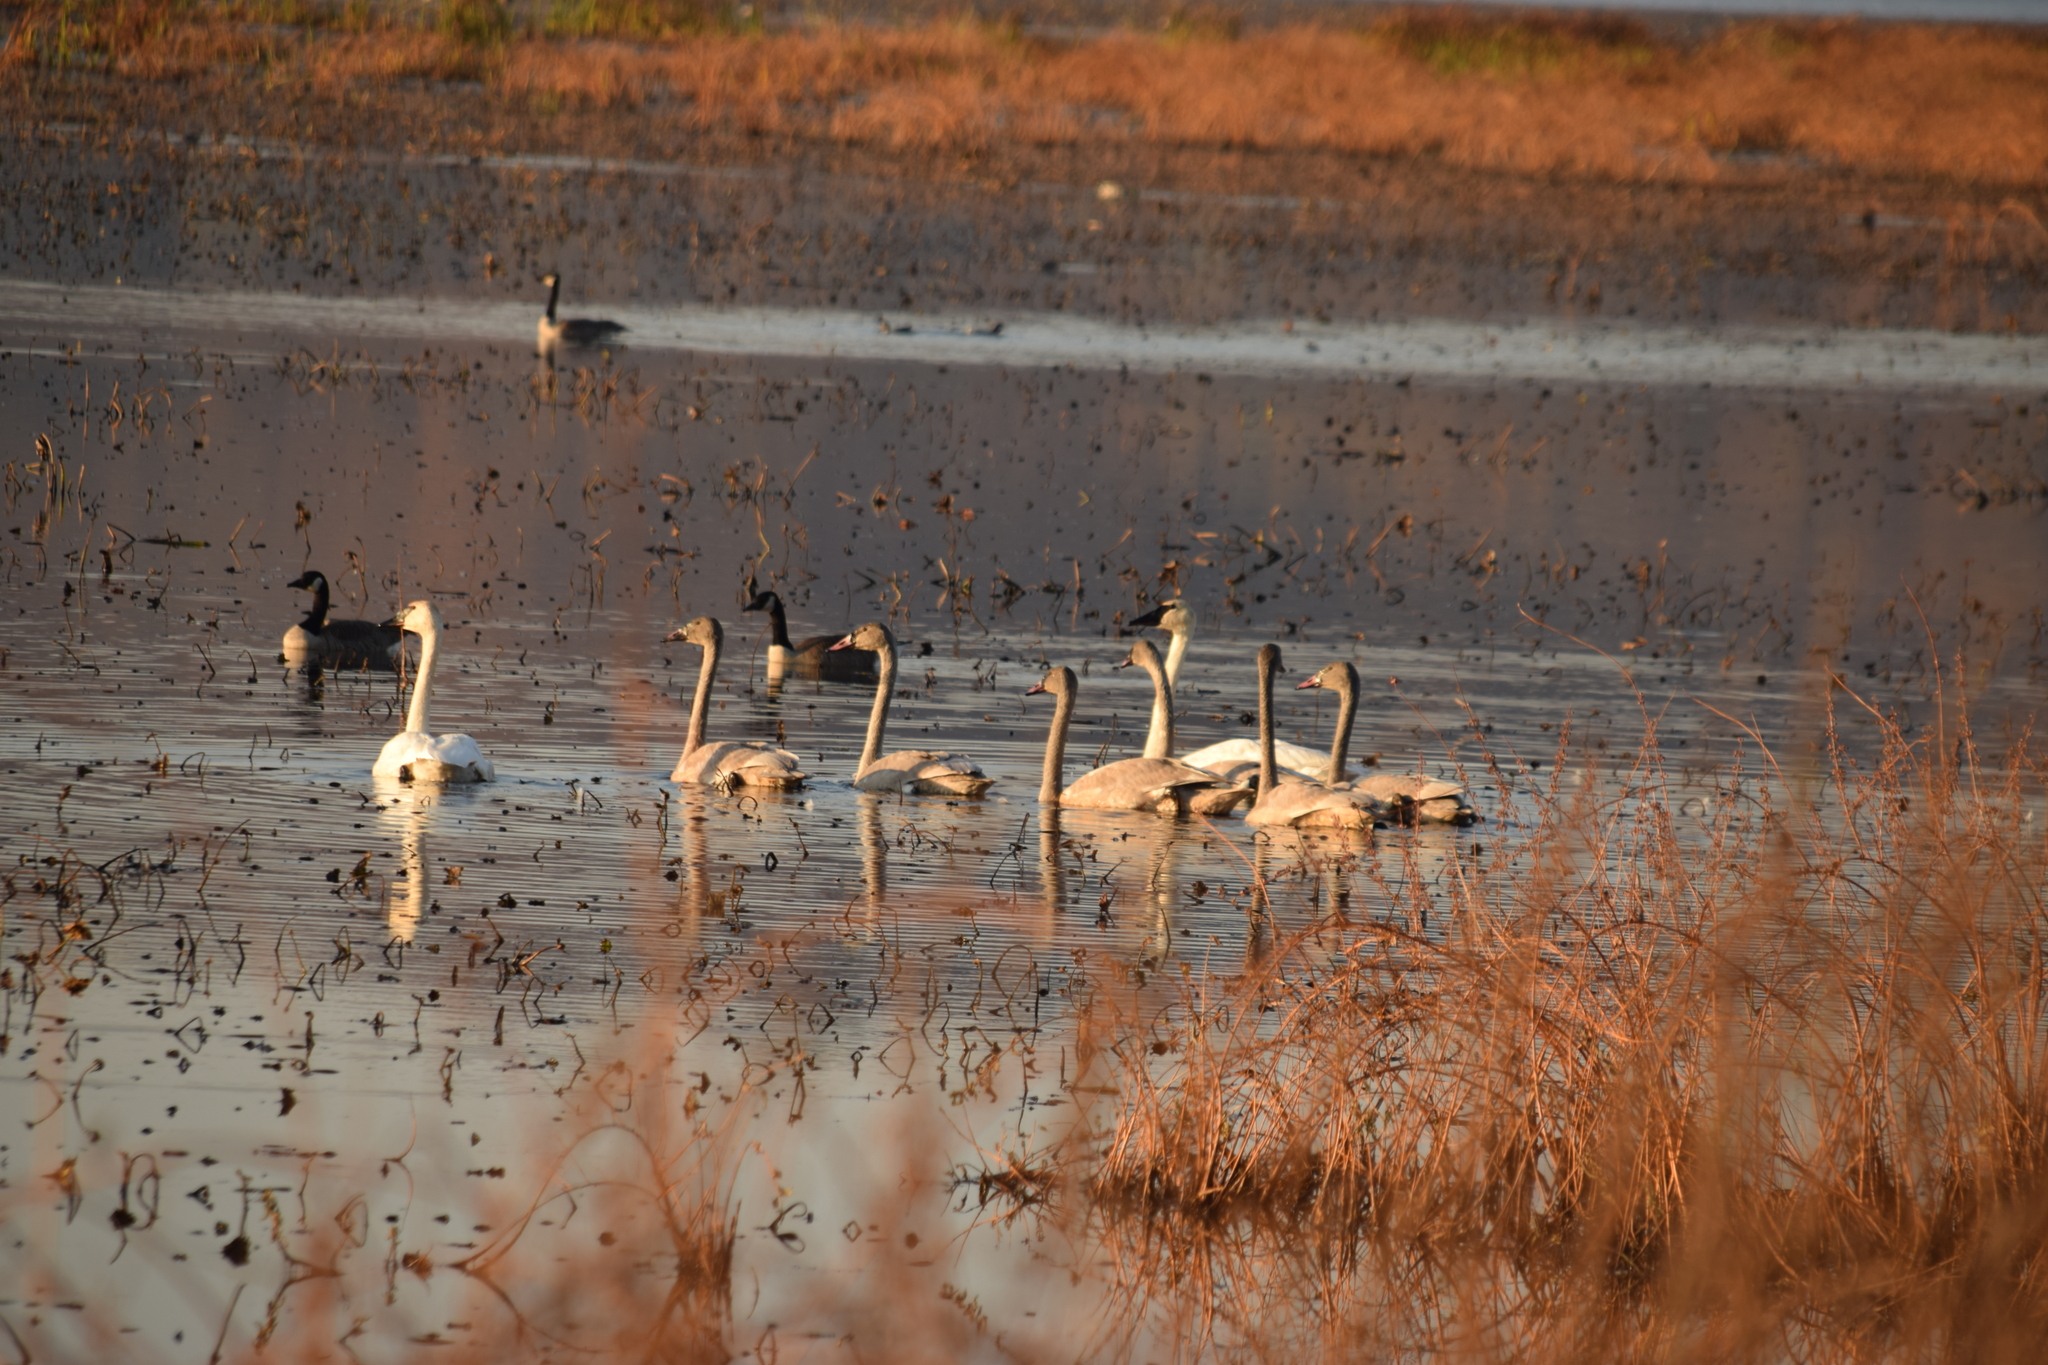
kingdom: Animalia
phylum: Chordata
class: Aves
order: Anseriformes
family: Anatidae
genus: Cygnus
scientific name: Cygnus buccinator
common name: Trumpeter swan
